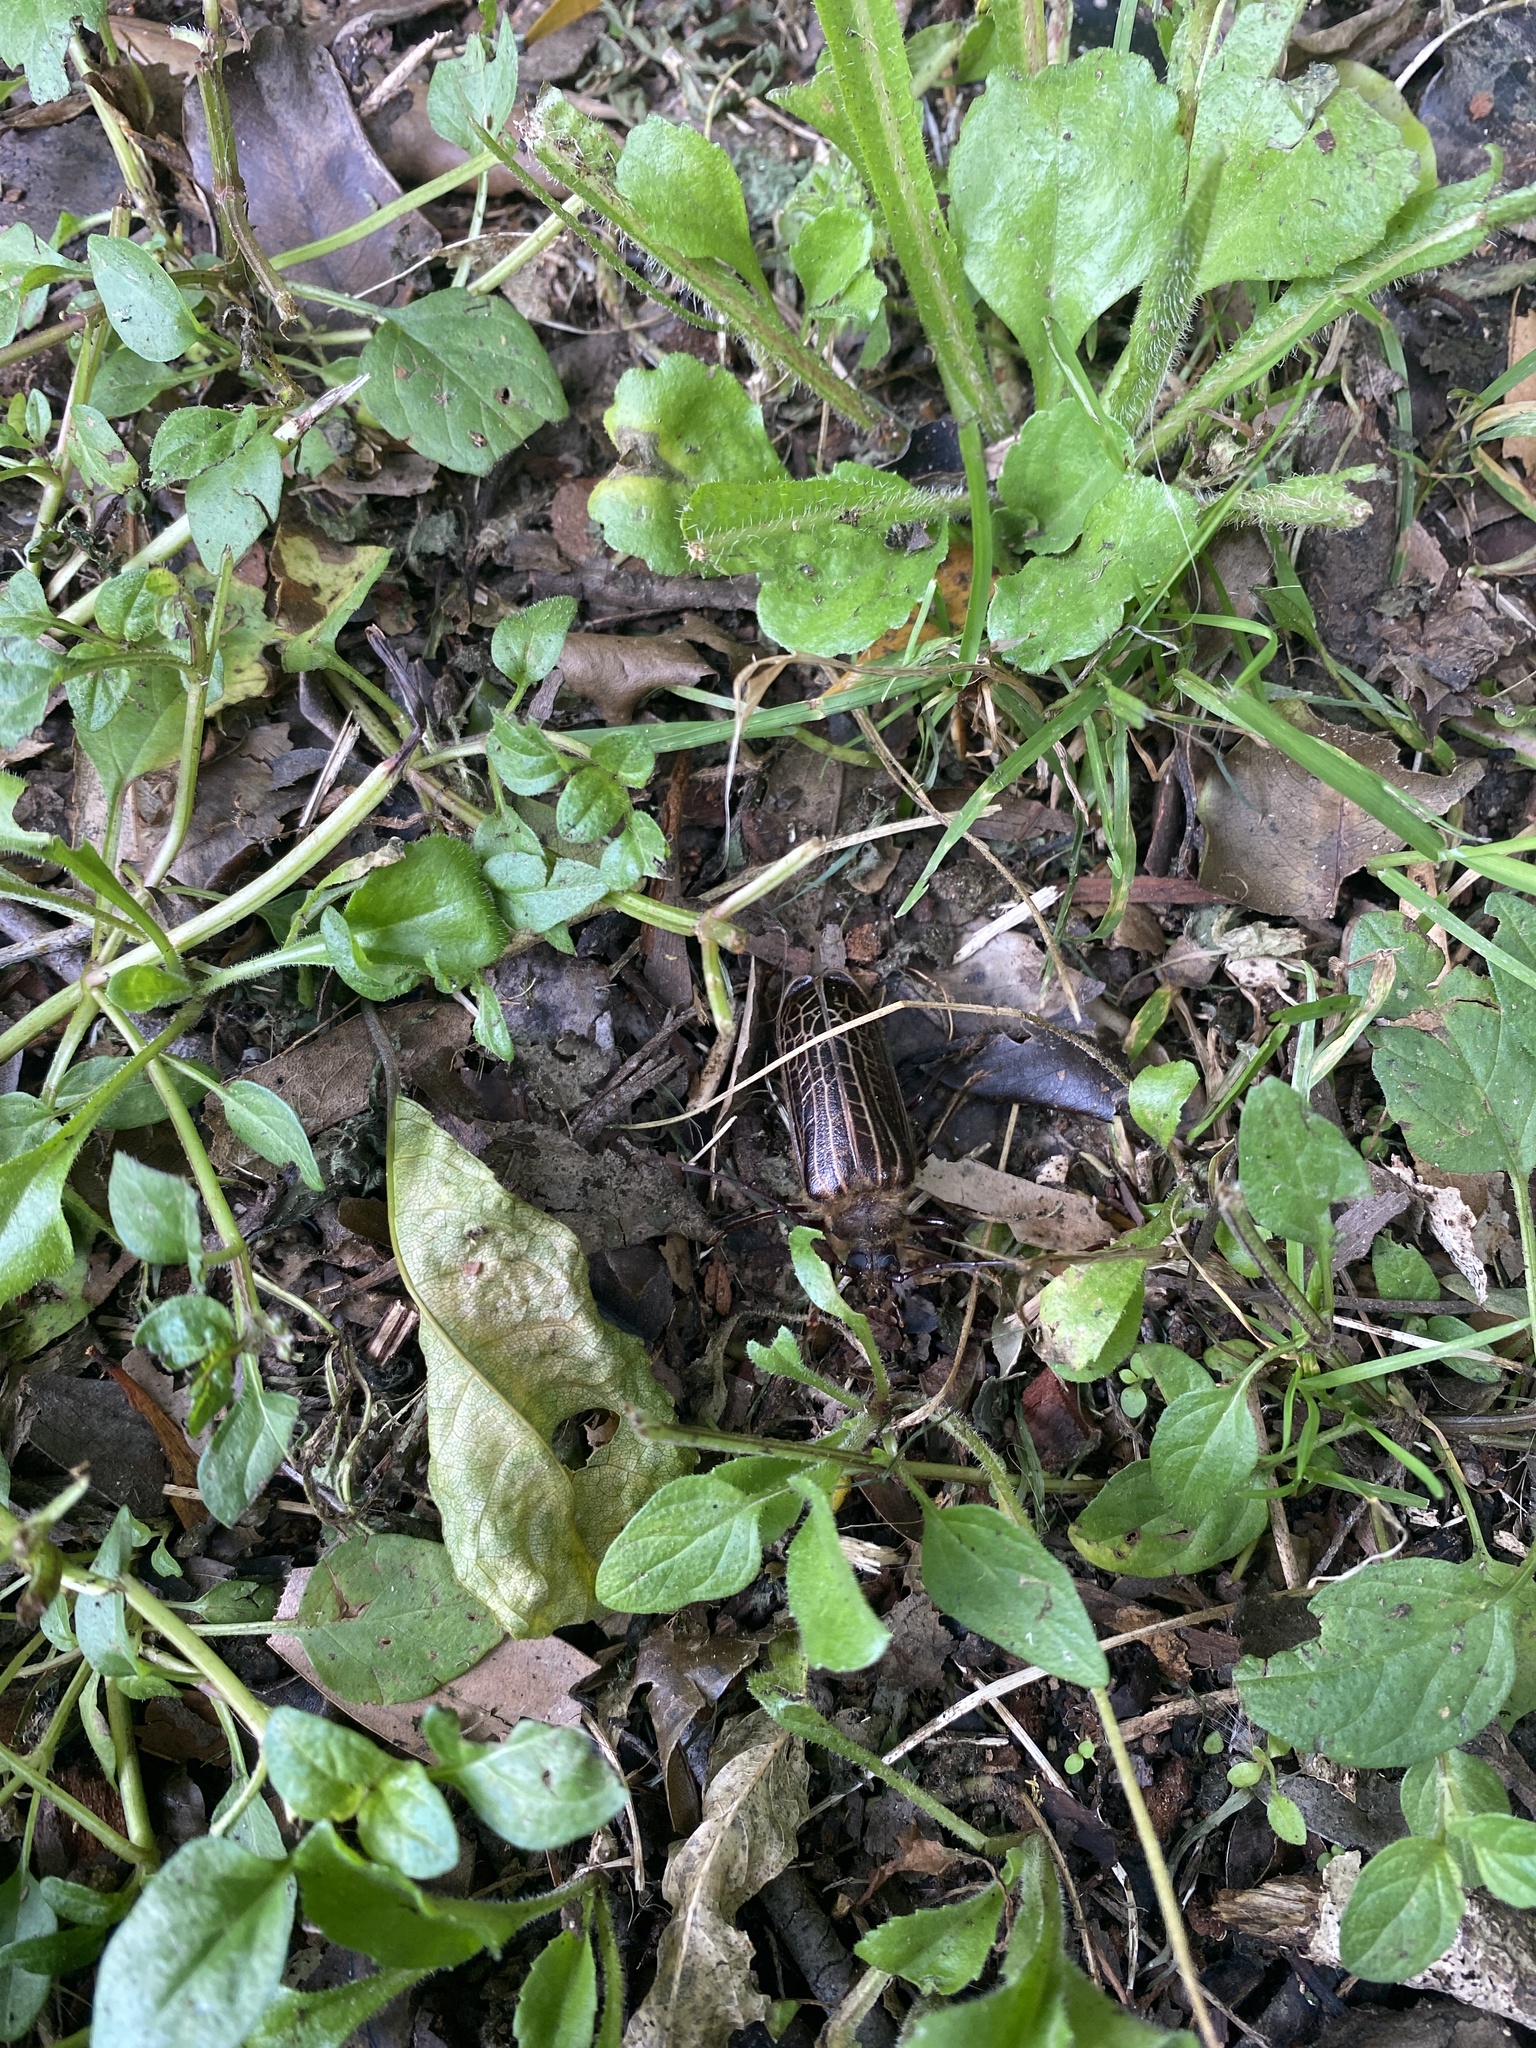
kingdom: Animalia
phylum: Arthropoda
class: Insecta
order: Coleoptera
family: Cerambycidae
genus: Prionoplus
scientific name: Prionoplus reticularis
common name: Huhu beetle
